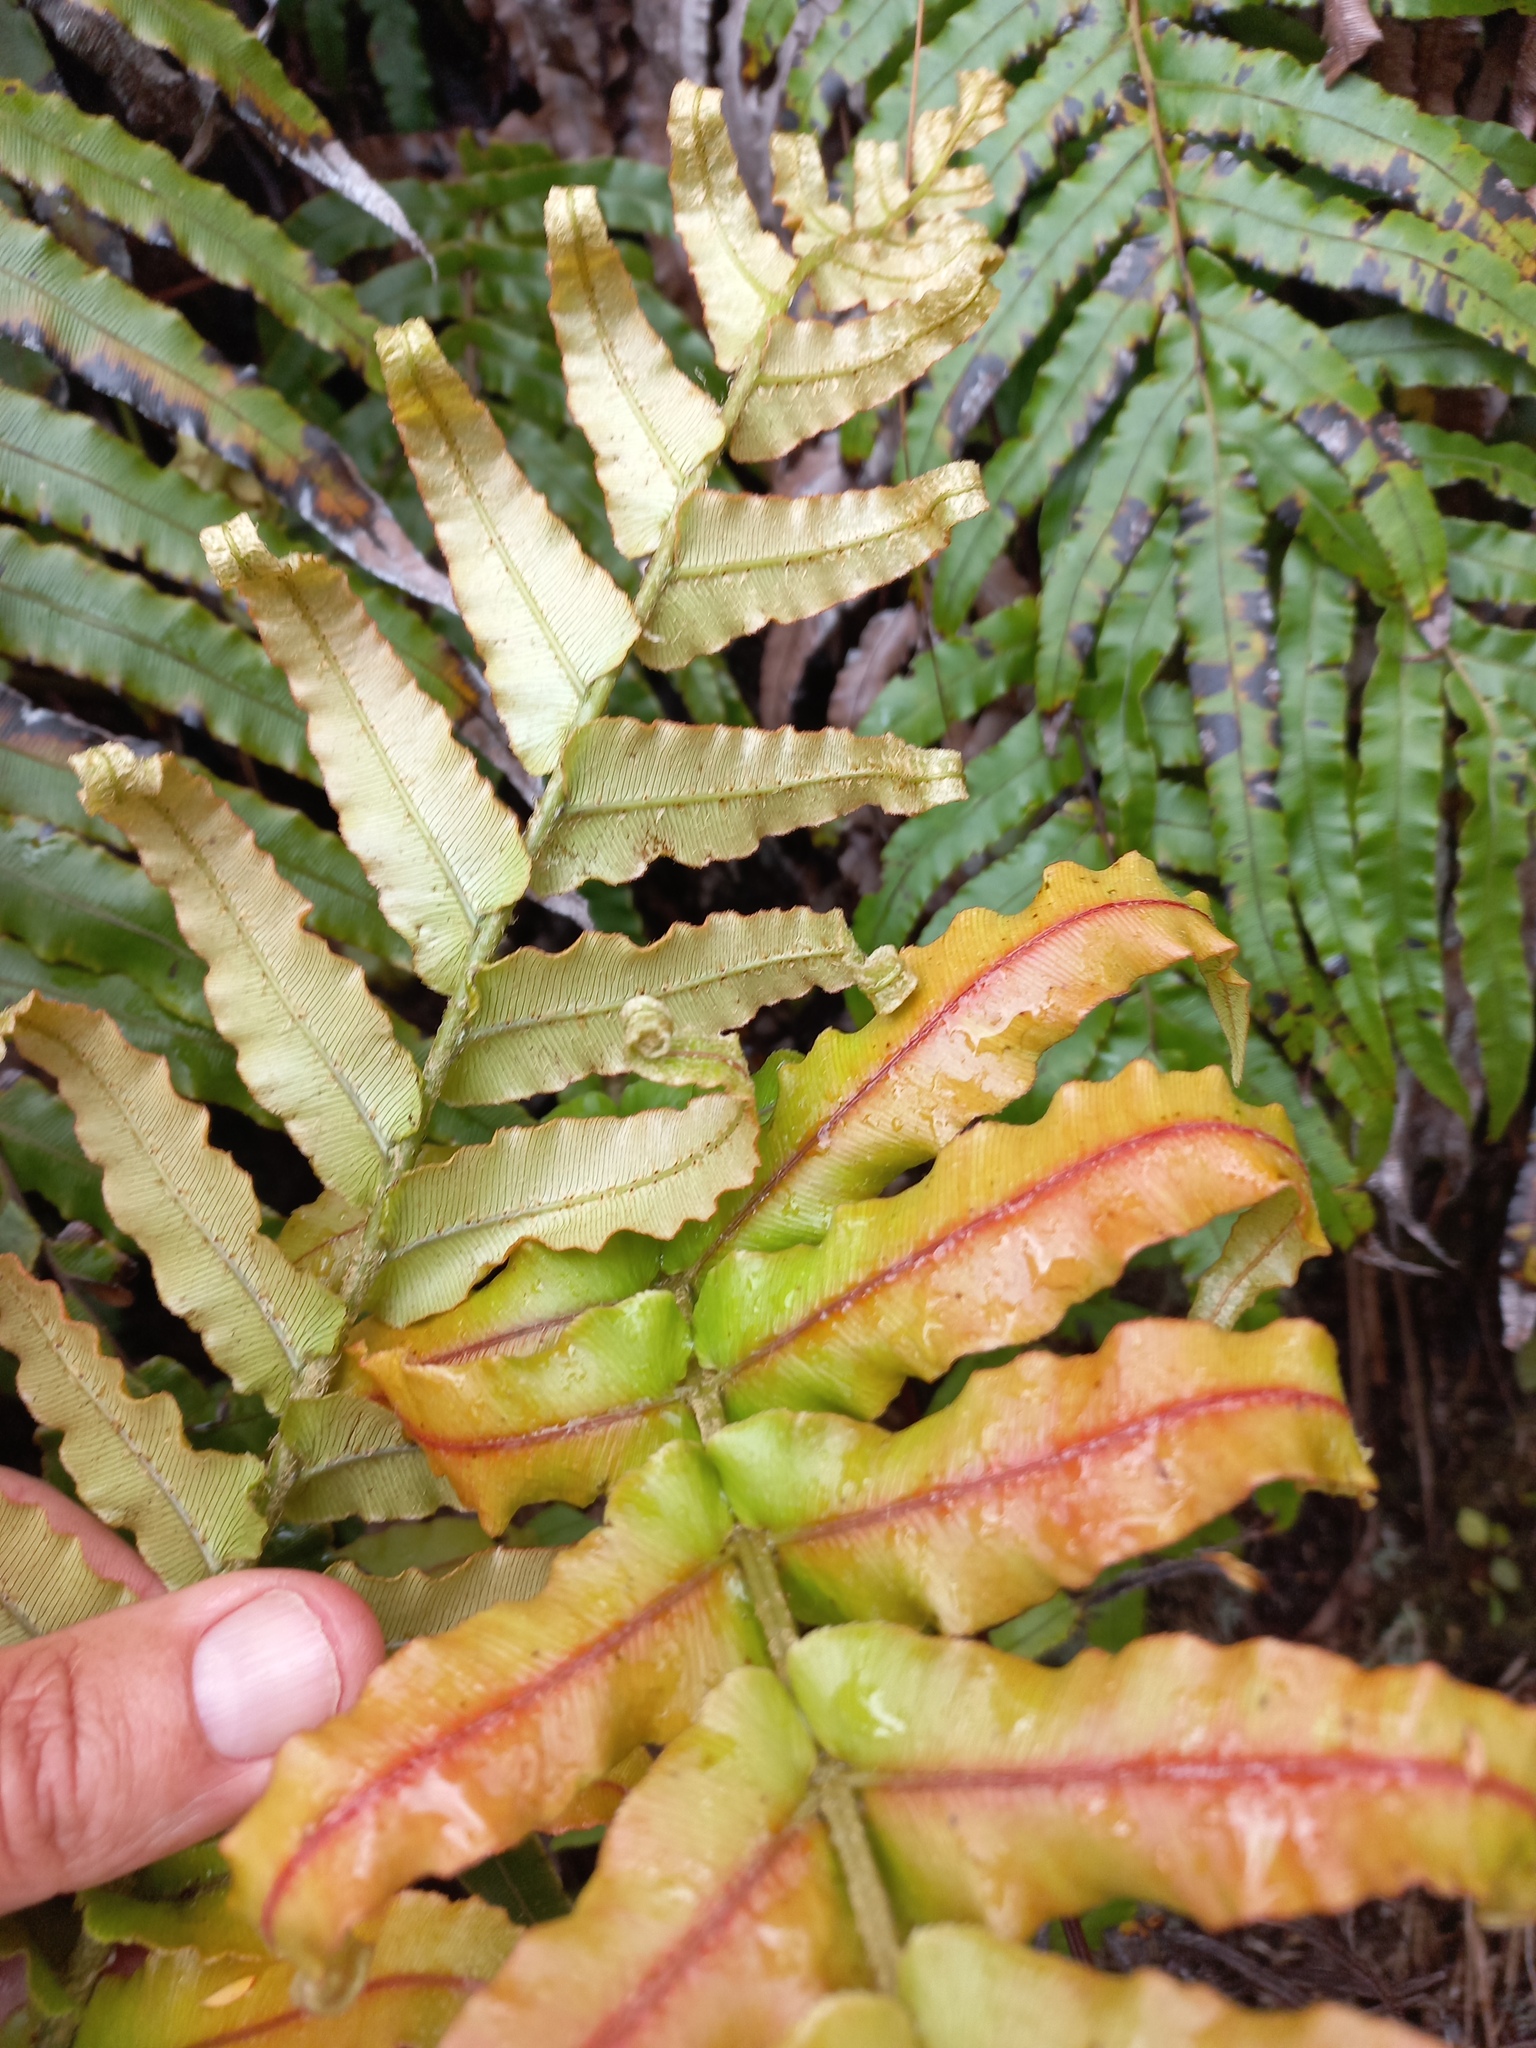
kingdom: Plantae
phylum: Tracheophyta
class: Polypodiopsida
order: Polypodiales
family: Blechnaceae
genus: Parablechnum
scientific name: Parablechnum novae-zelandiae
